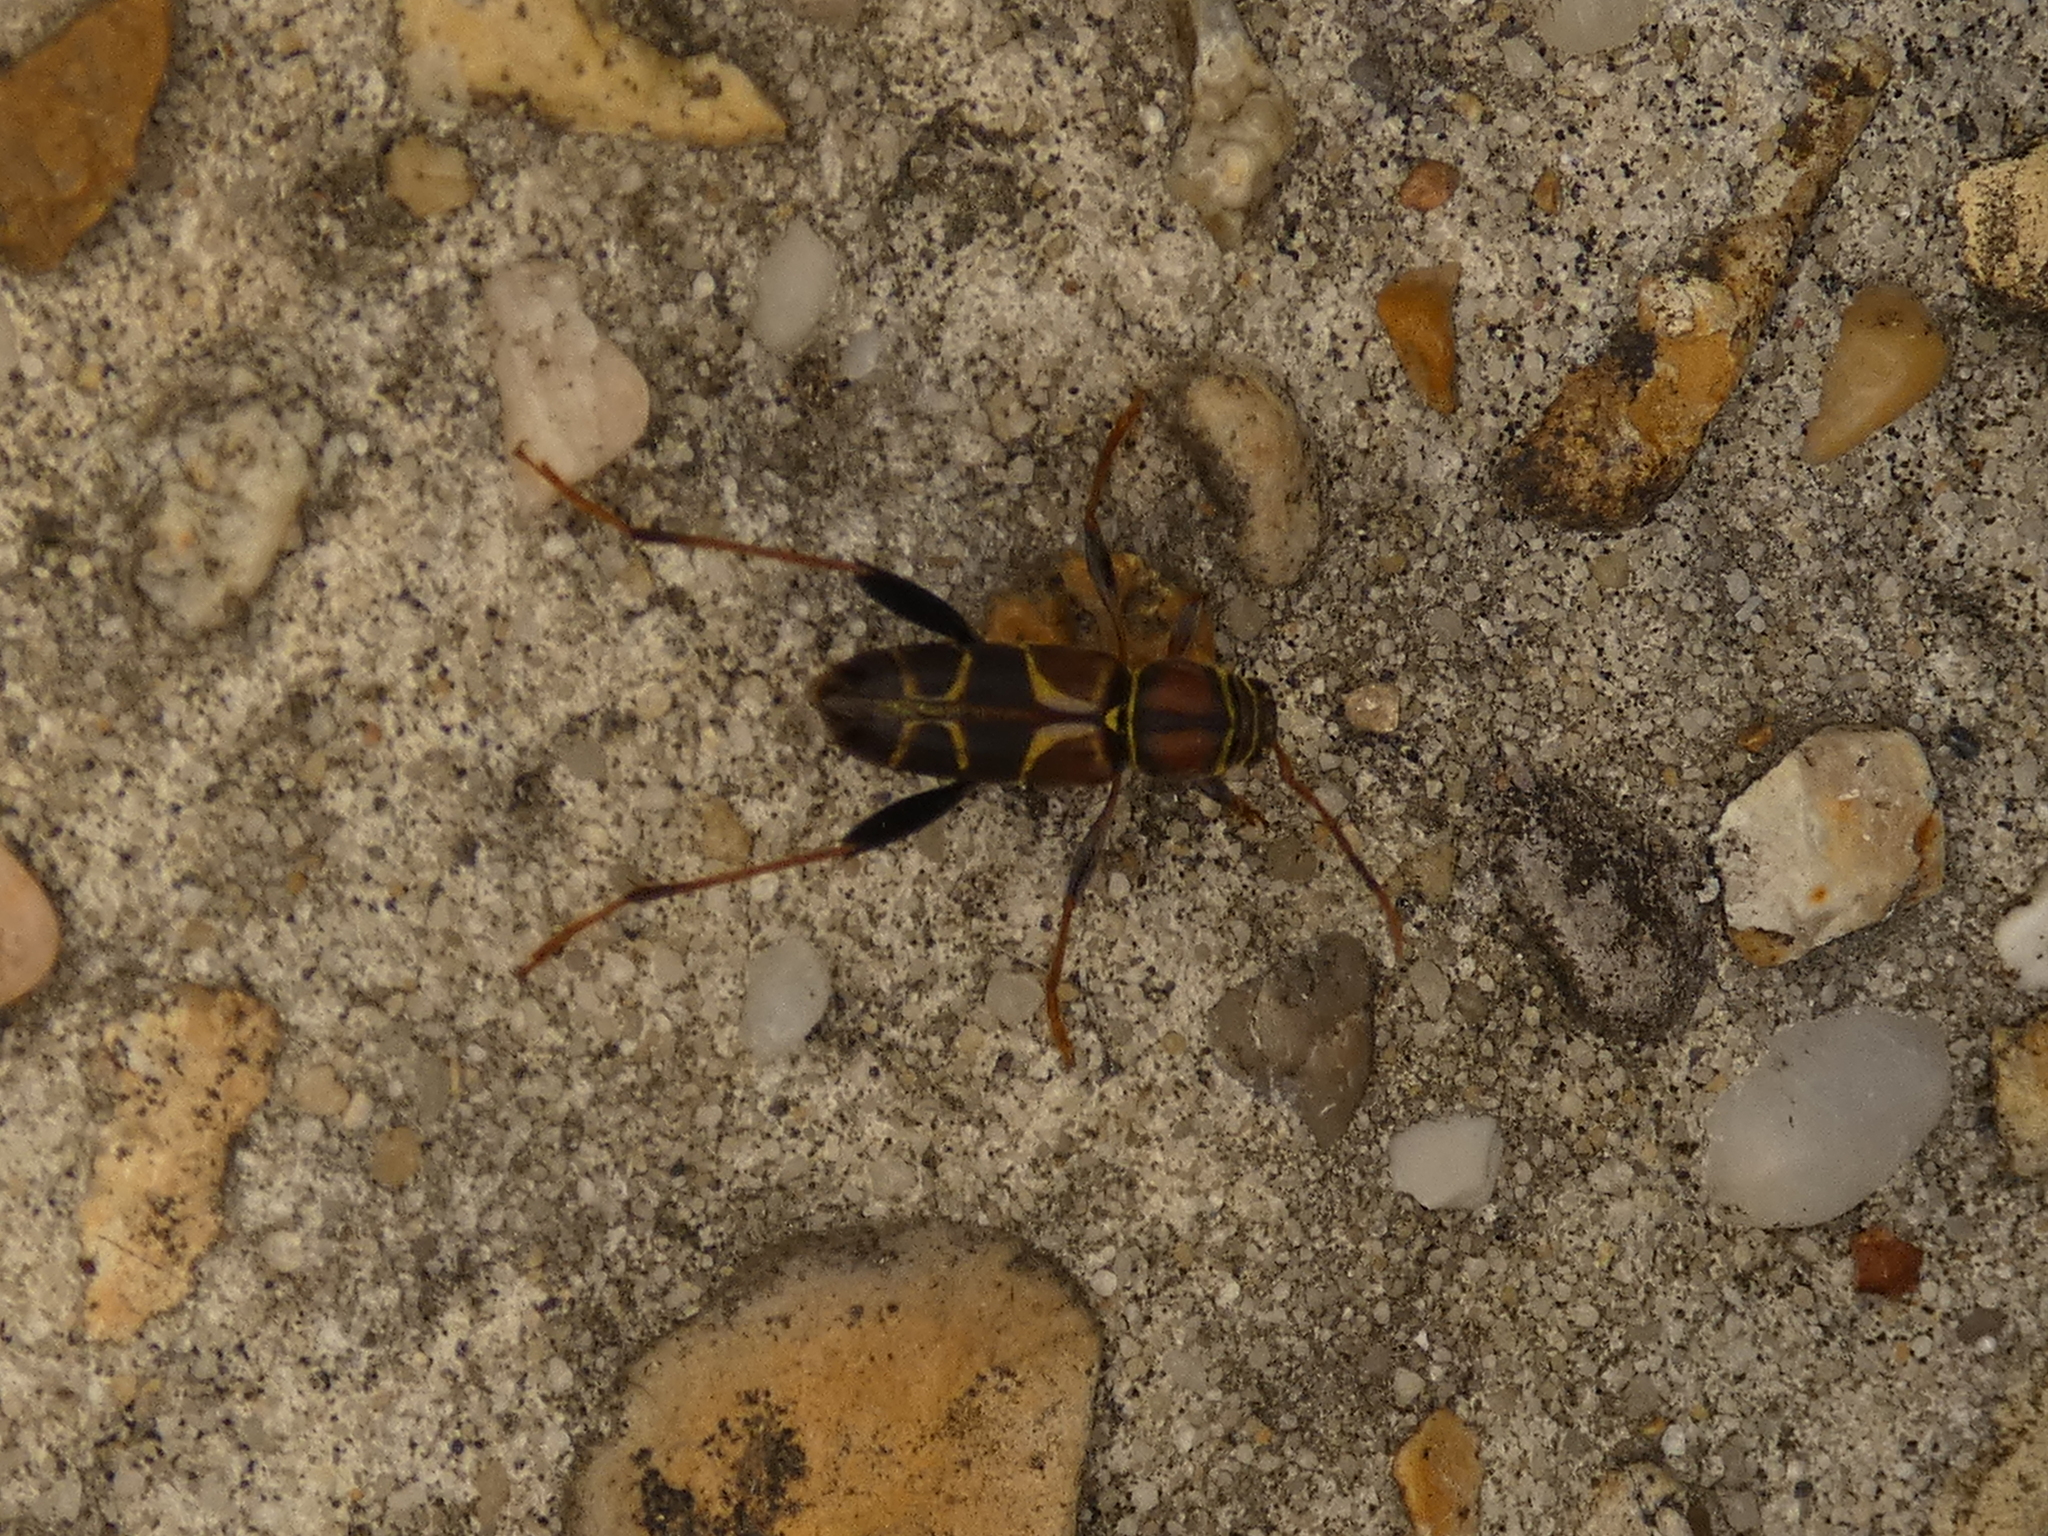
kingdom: Animalia
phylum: Arthropoda
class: Insecta
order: Coleoptera
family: Cerambycidae
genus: Neoclytus
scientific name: Neoclytus mucronatus
